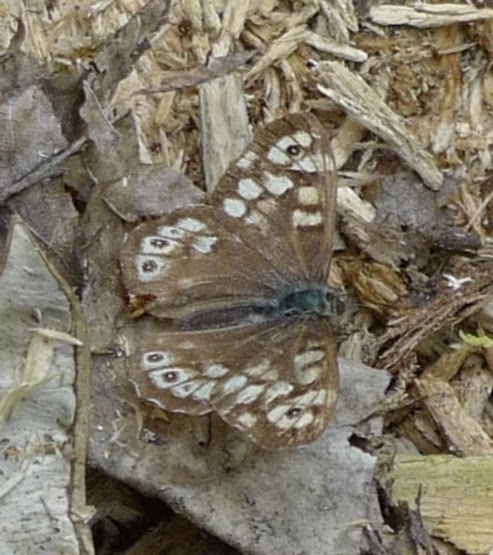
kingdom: Animalia
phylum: Arthropoda
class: Insecta
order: Lepidoptera
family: Nymphalidae
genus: Pararge
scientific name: Pararge aegeria
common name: Speckled wood
